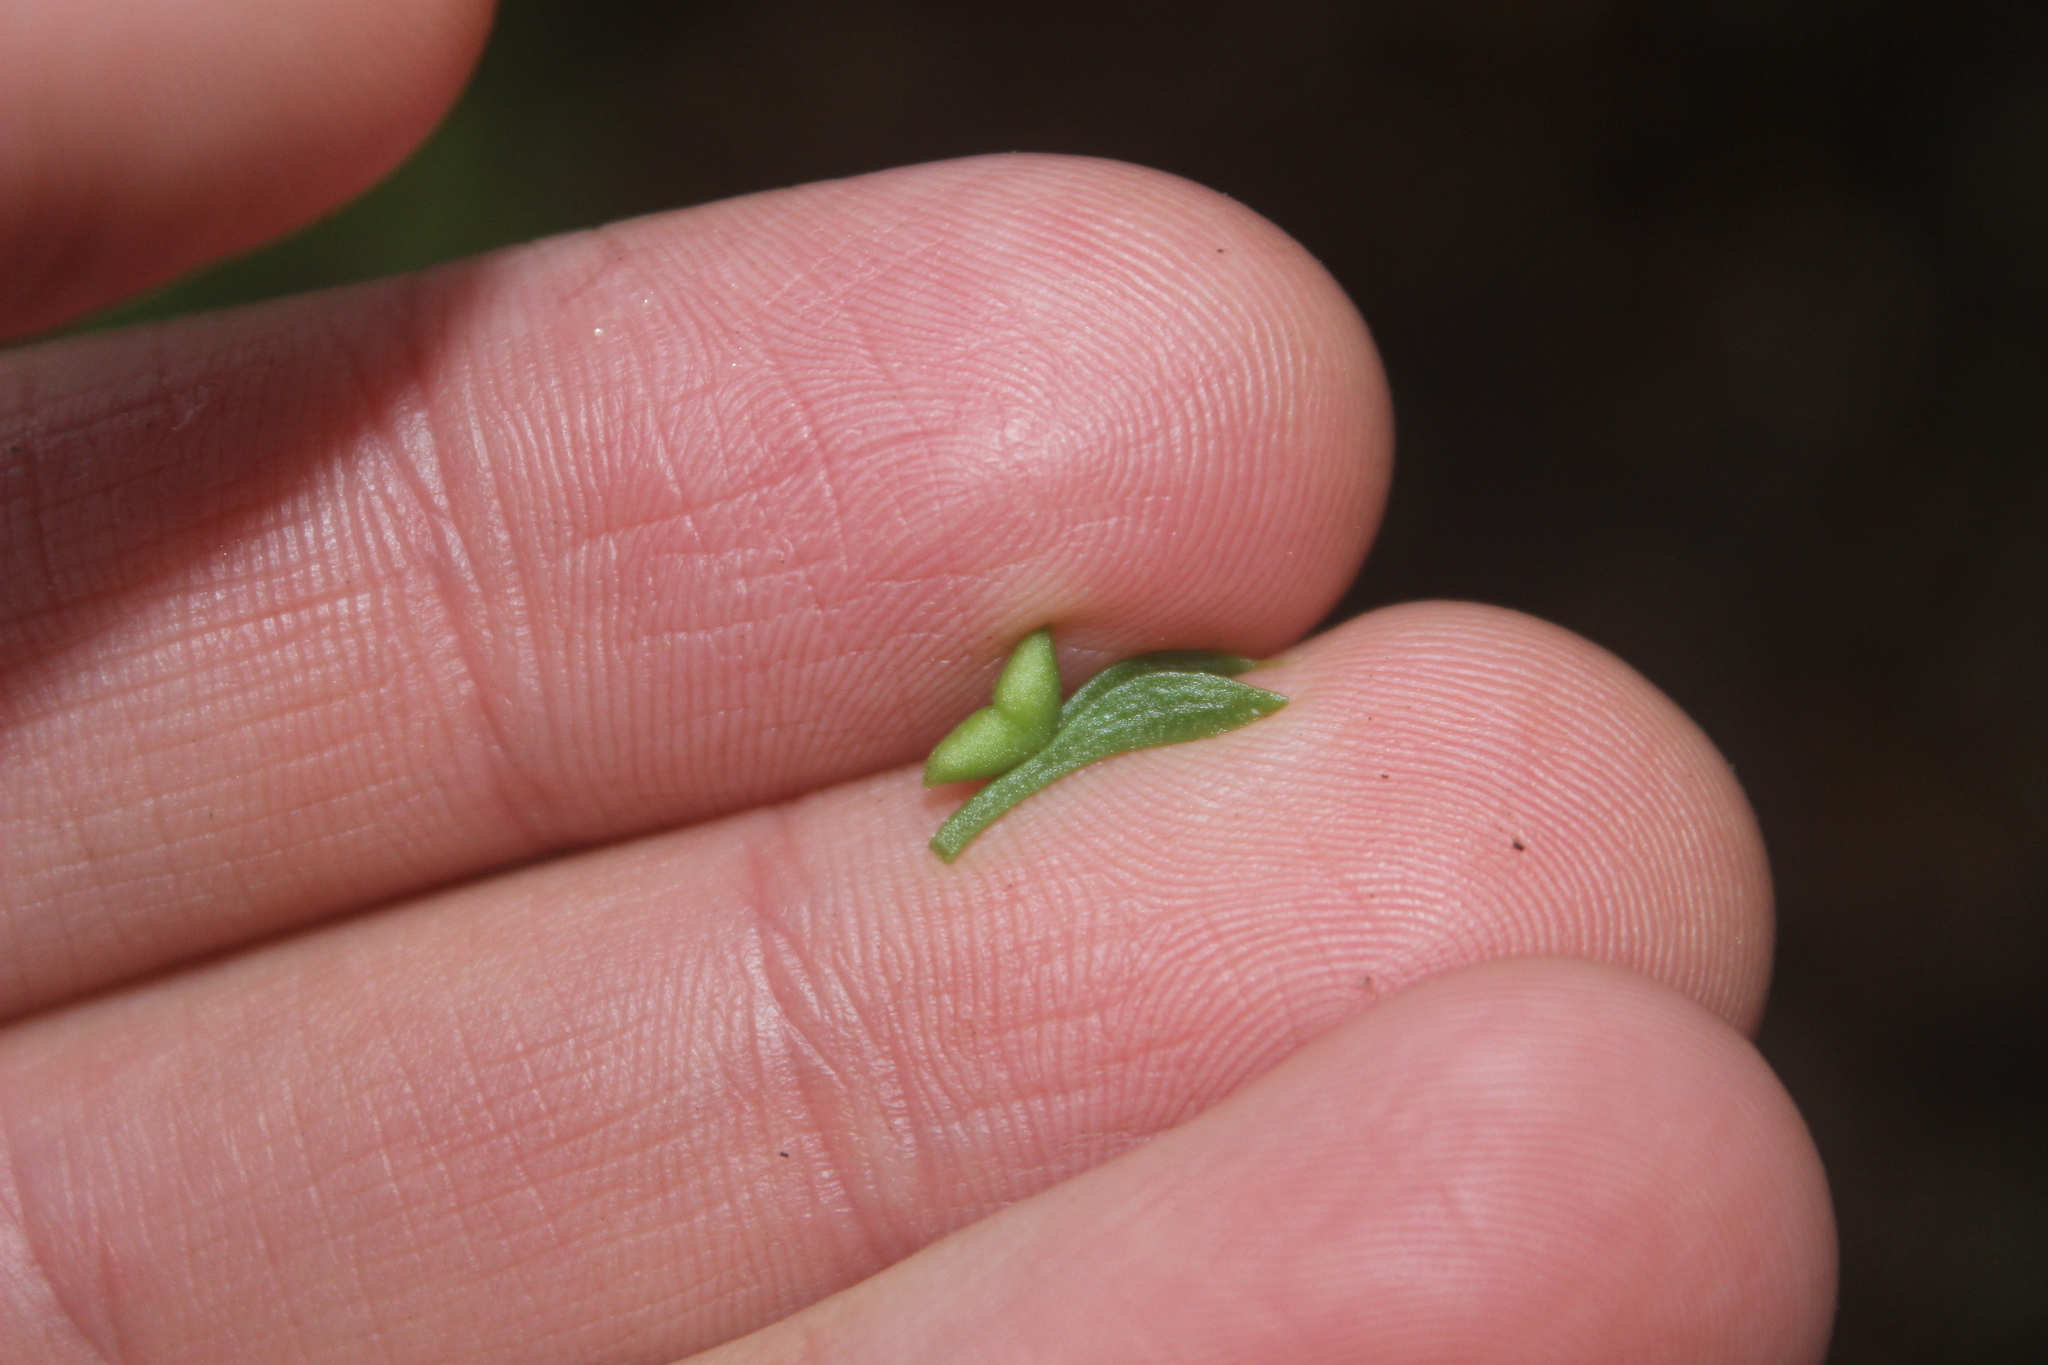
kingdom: Plantae
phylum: Tracheophyta
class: Polypodiopsida
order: Psilotales
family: Psilotaceae
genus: Tmesipteris
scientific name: Tmesipteris tannensis
